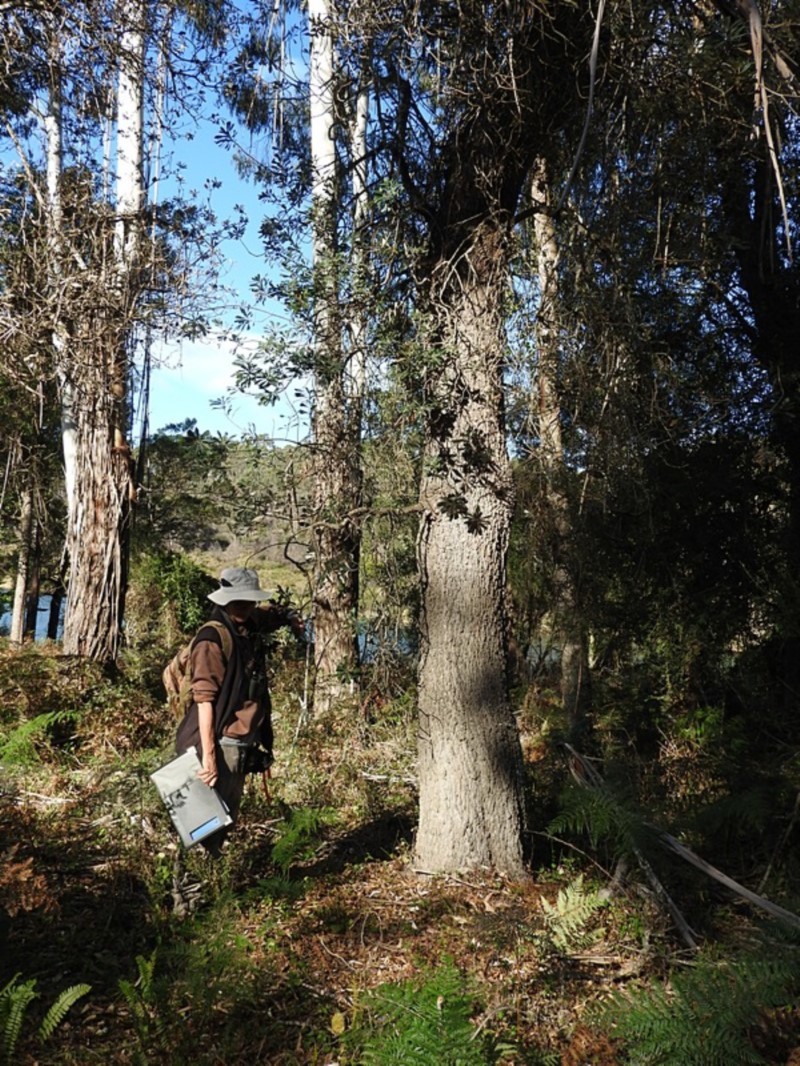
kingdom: Plantae
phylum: Tracheophyta
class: Magnoliopsida
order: Proteales
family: Proteaceae
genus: Banksia
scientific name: Banksia integrifolia
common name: White-honeysuckle
